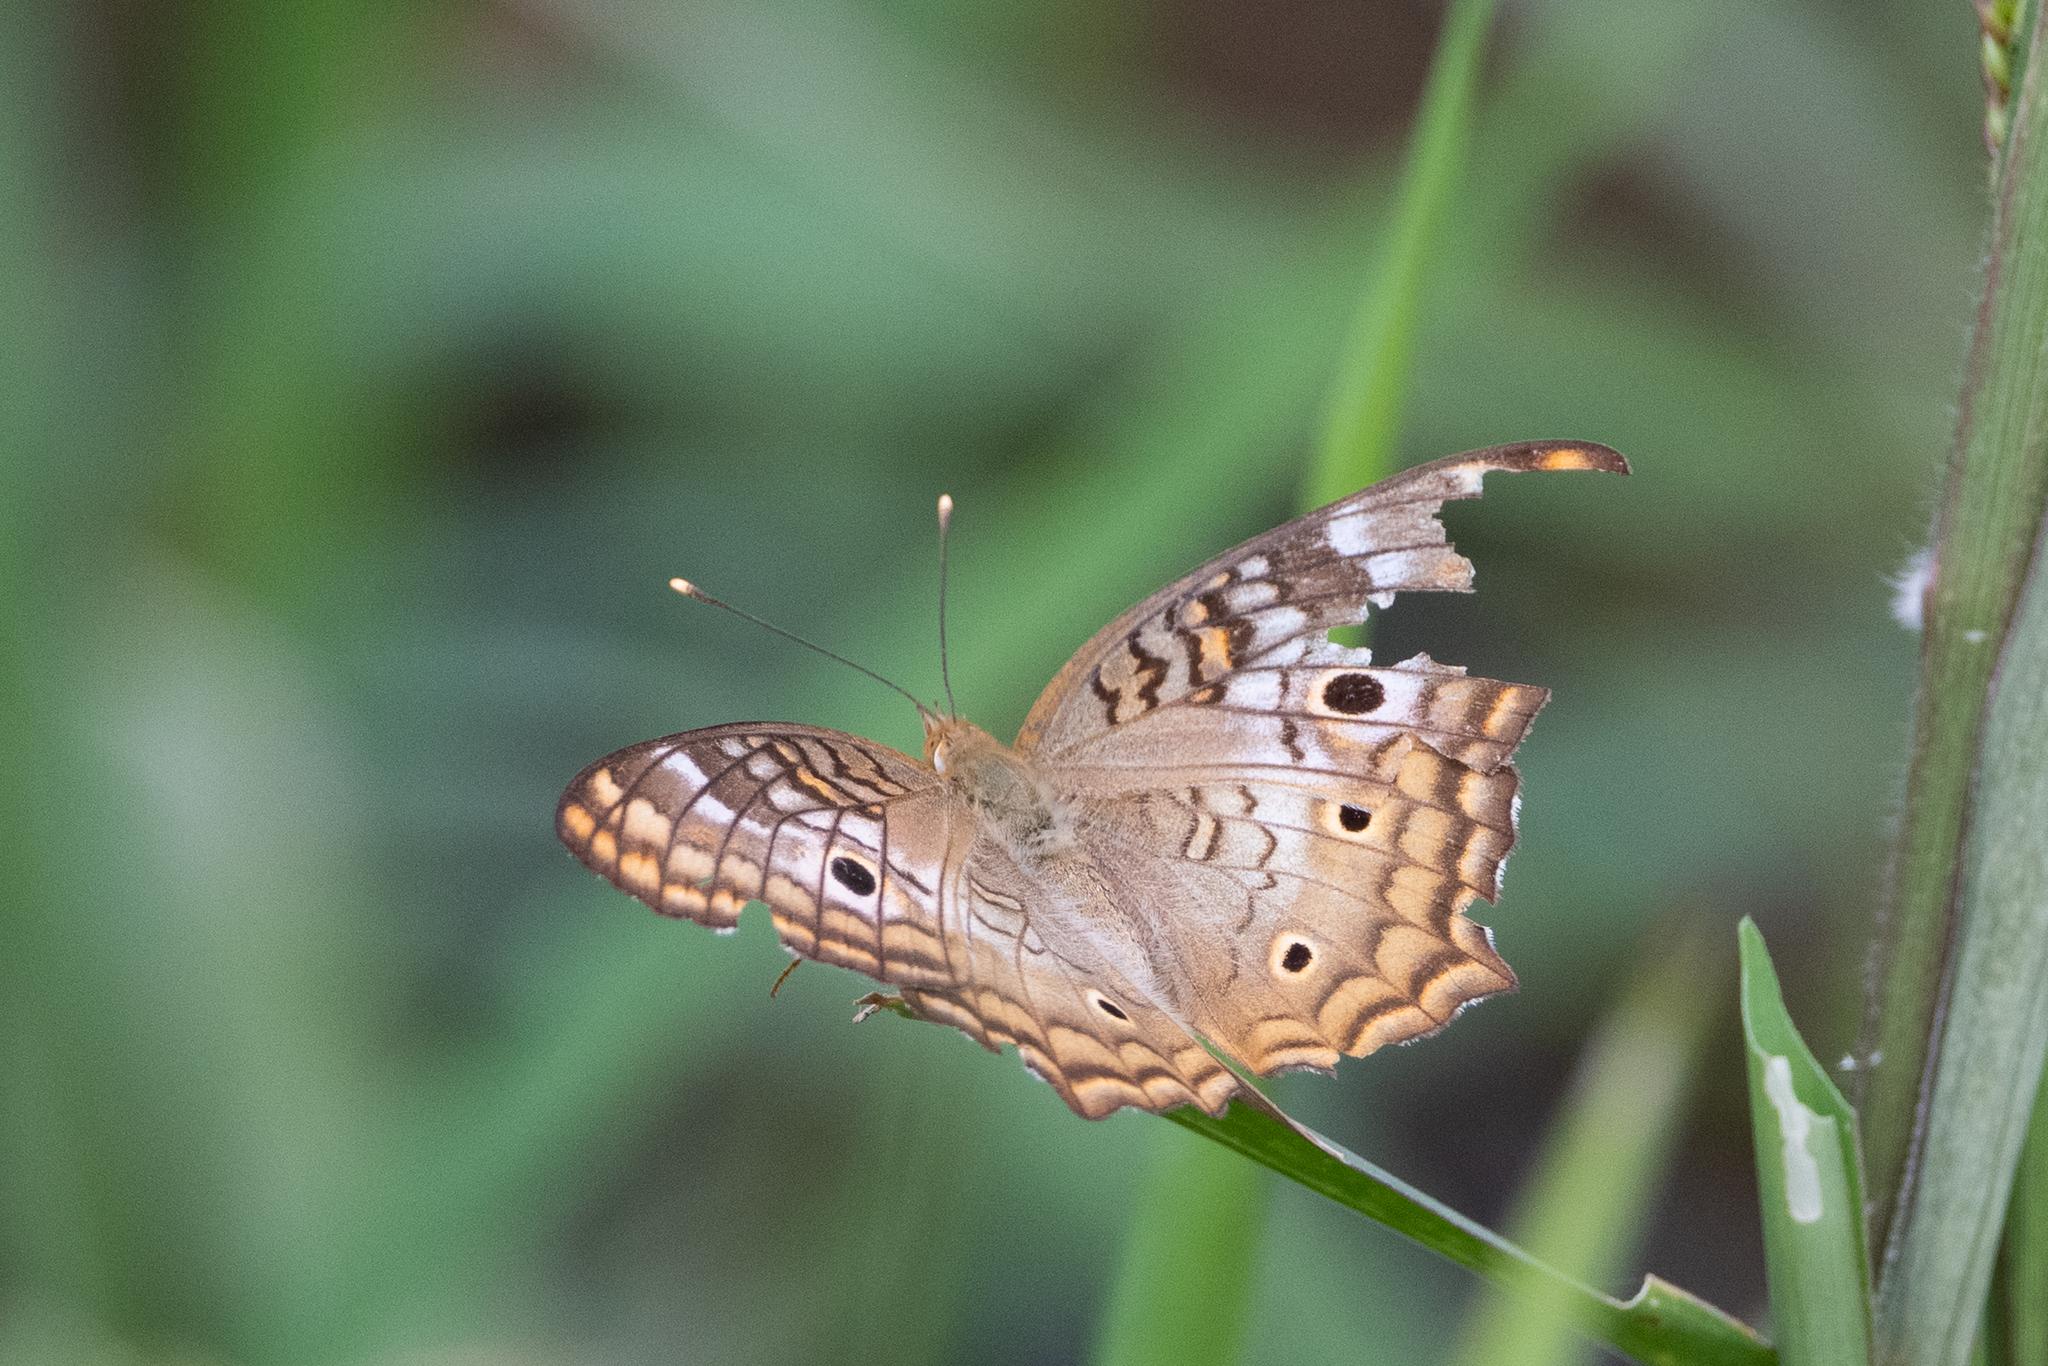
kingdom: Animalia
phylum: Arthropoda
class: Insecta
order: Lepidoptera
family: Nymphalidae
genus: Anartia
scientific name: Anartia jatrophae
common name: White peacock
